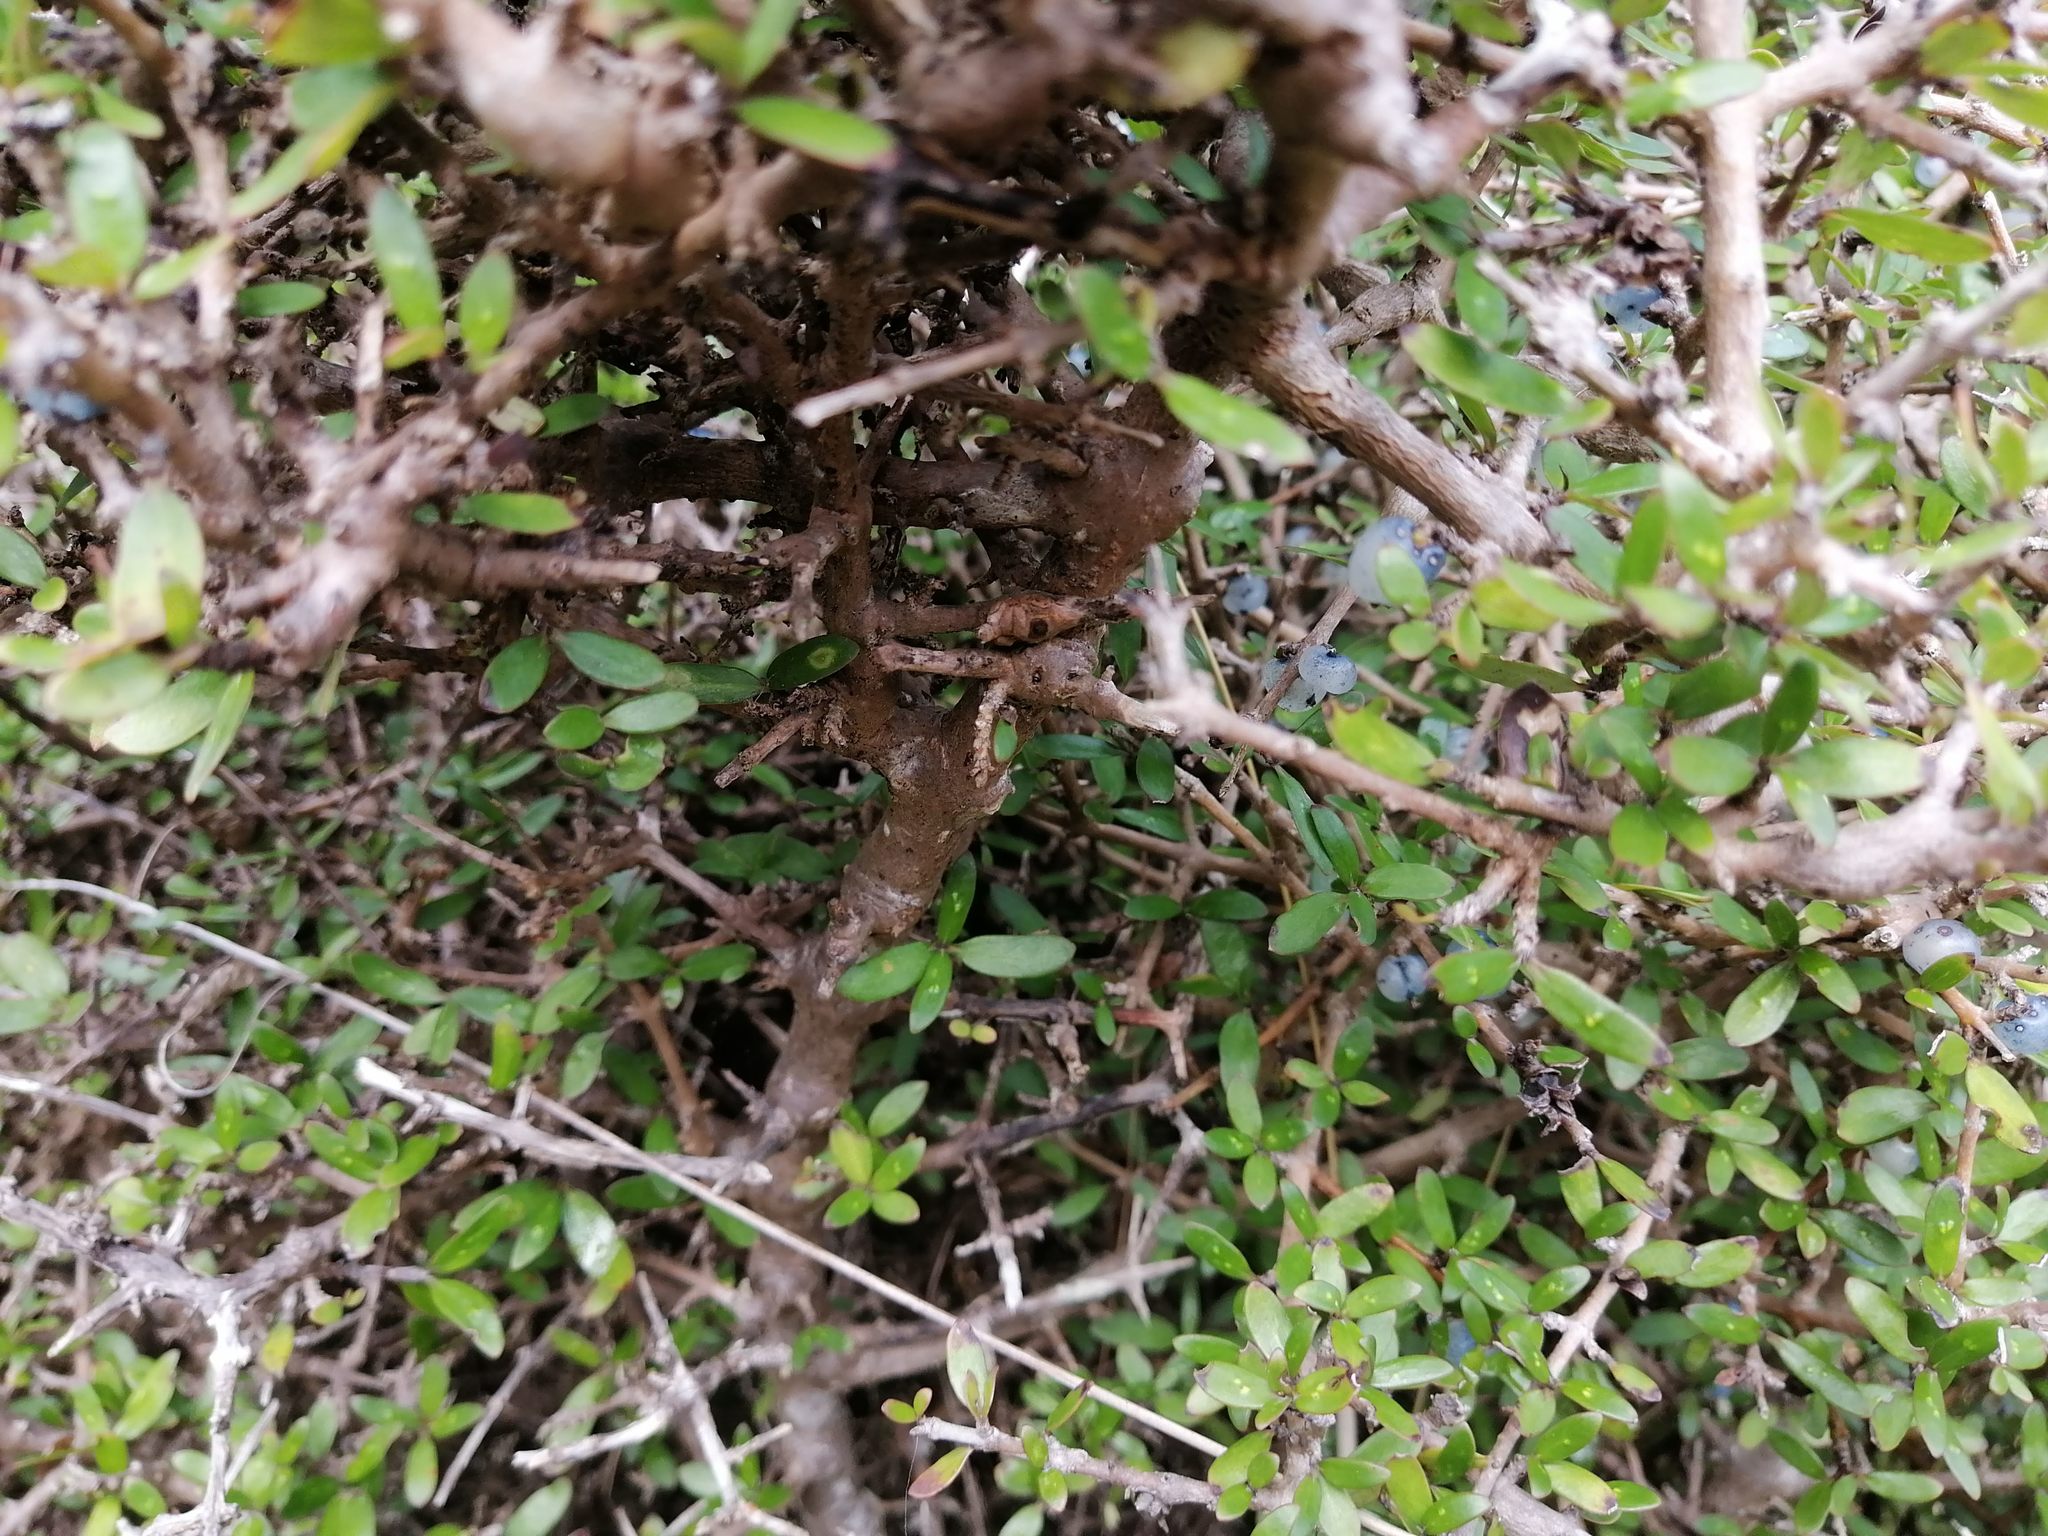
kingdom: Plantae
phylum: Tracheophyta
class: Magnoliopsida
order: Gentianales
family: Rubiaceae
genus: Coprosma
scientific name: Coprosma propinqua
